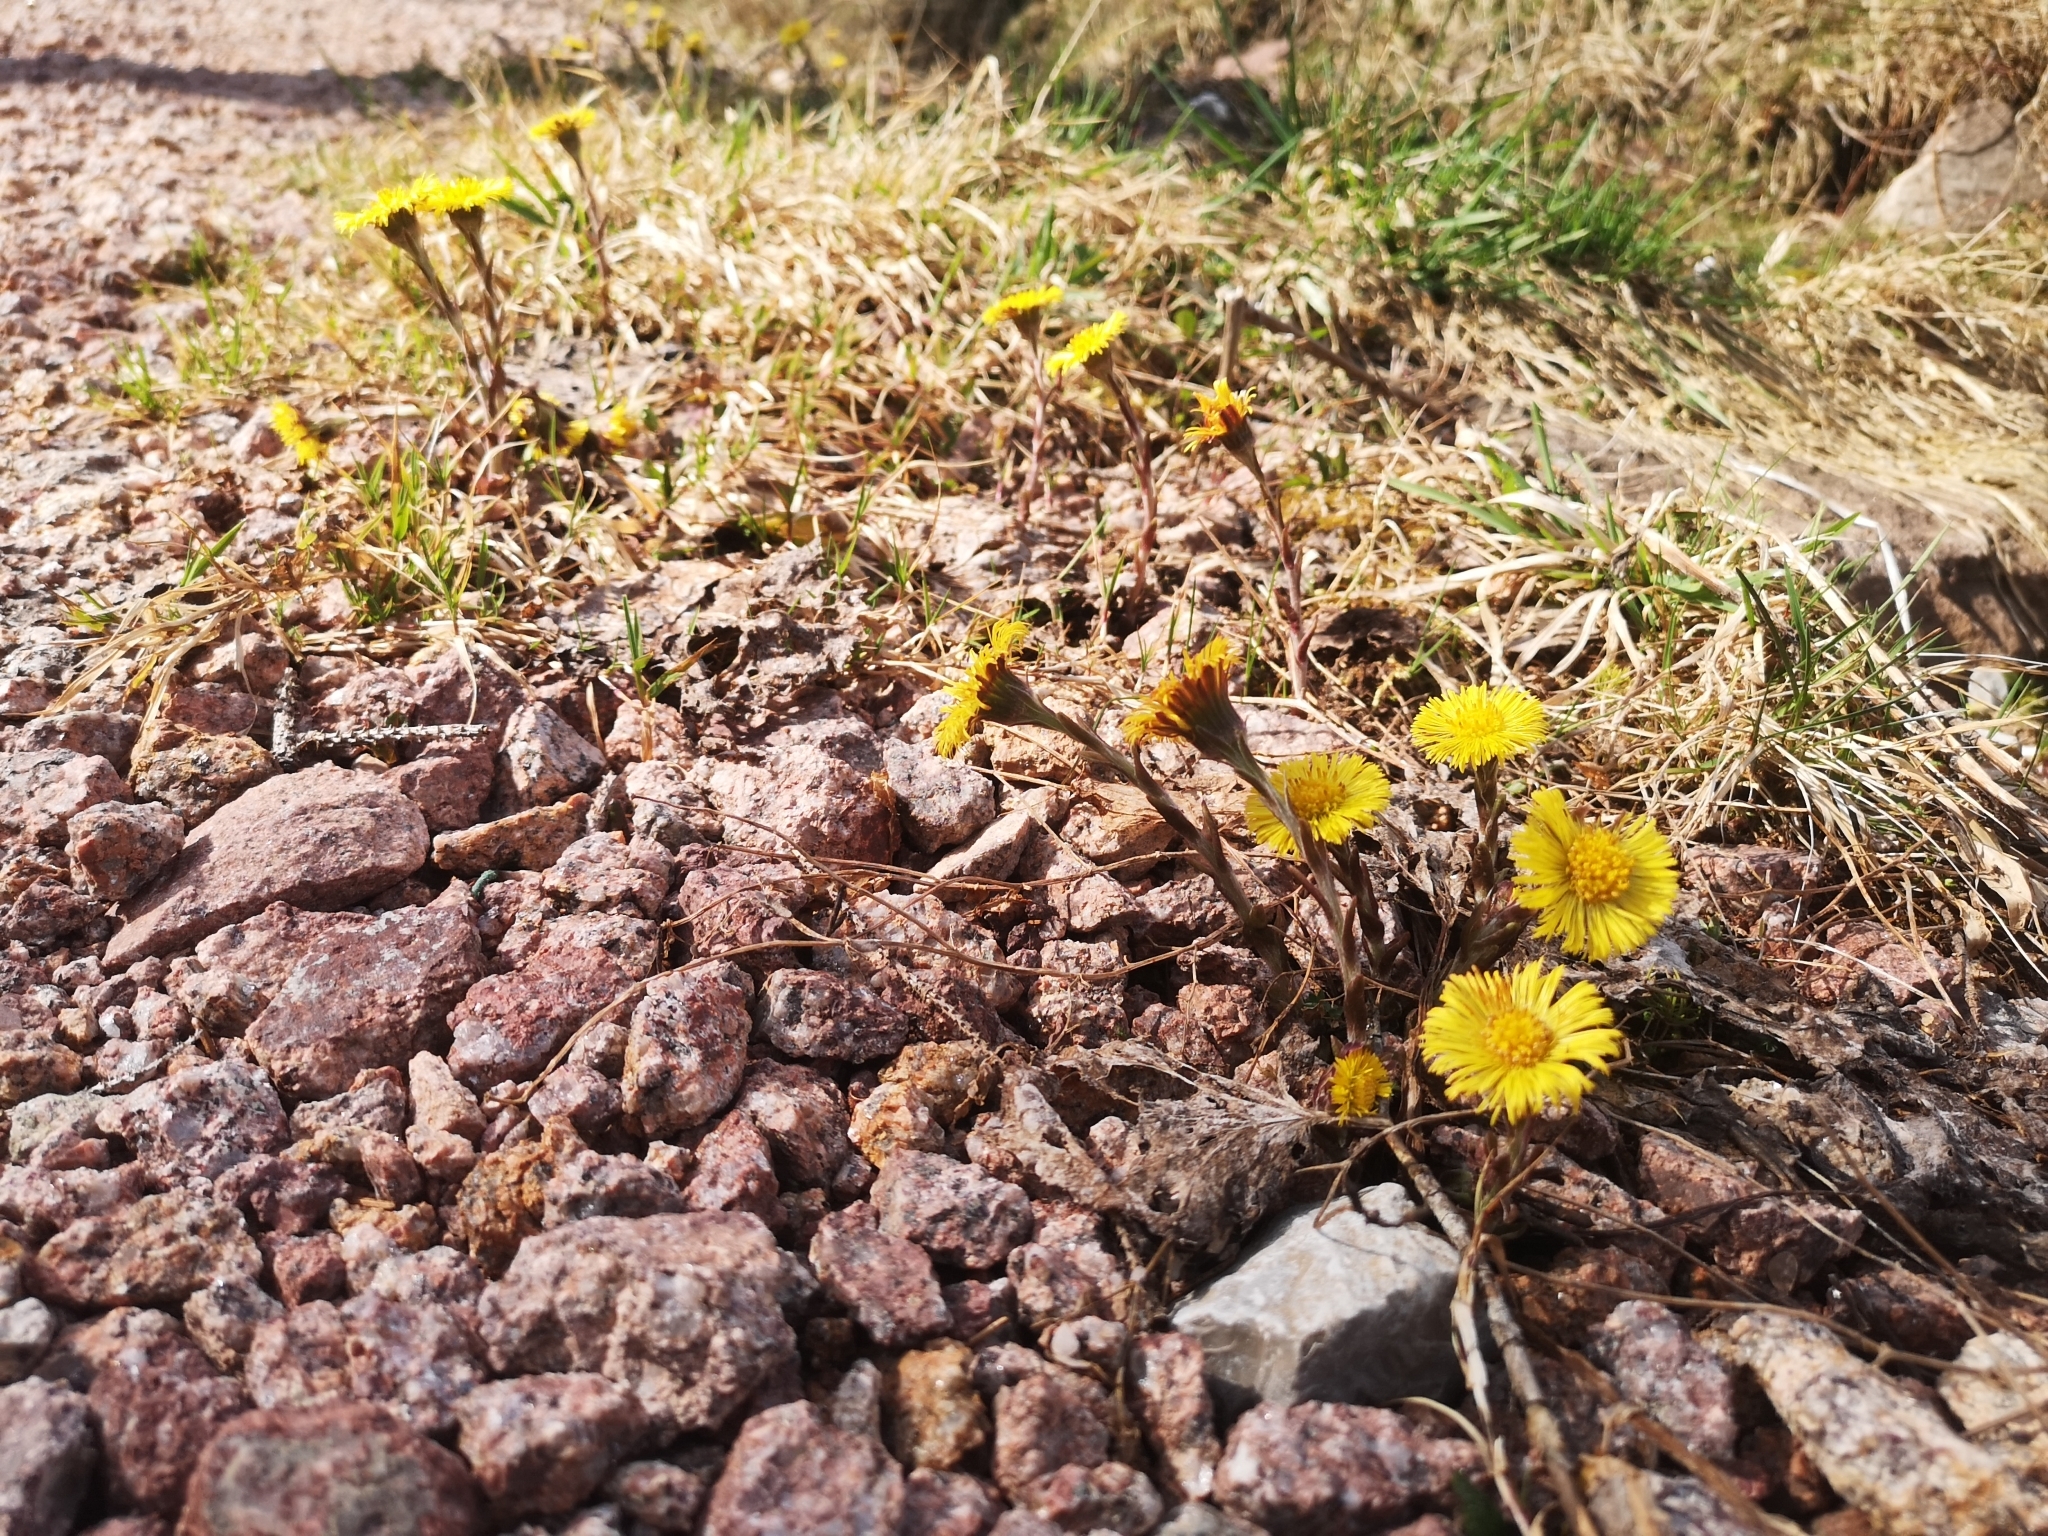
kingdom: Plantae
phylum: Tracheophyta
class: Magnoliopsida
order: Asterales
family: Asteraceae
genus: Tussilago
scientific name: Tussilago farfara
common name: Coltsfoot
